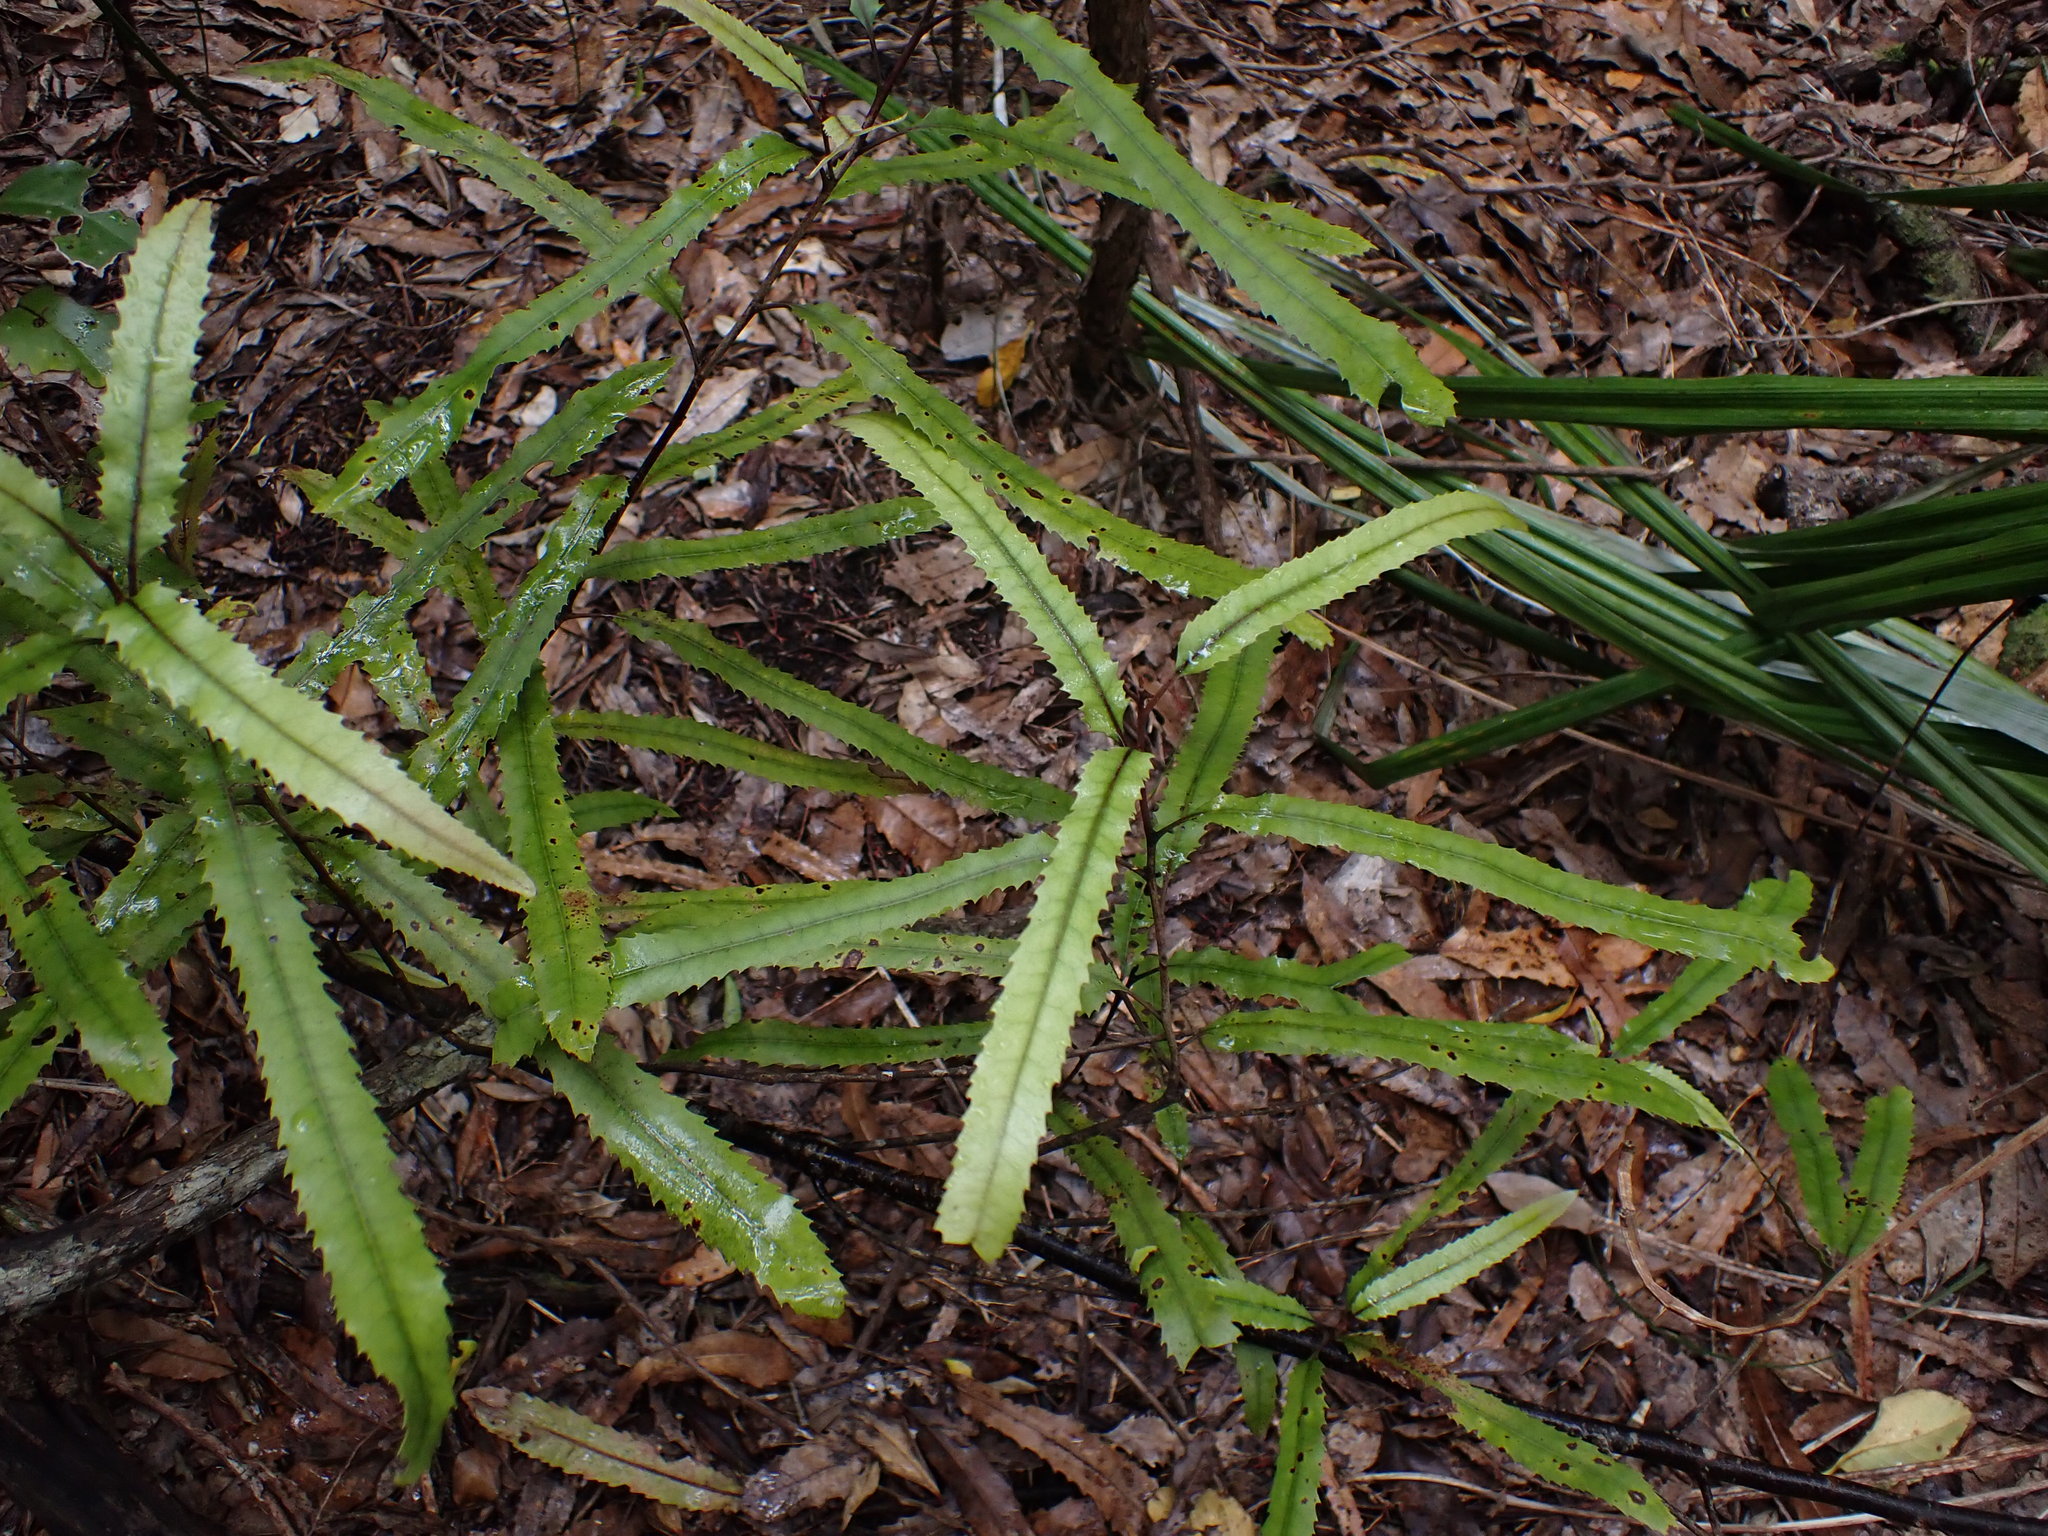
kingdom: Plantae
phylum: Tracheophyta
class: Magnoliopsida
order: Proteales
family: Proteaceae
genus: Knightia
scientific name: Knightia excelsa
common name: New zealand-honeysuckle
